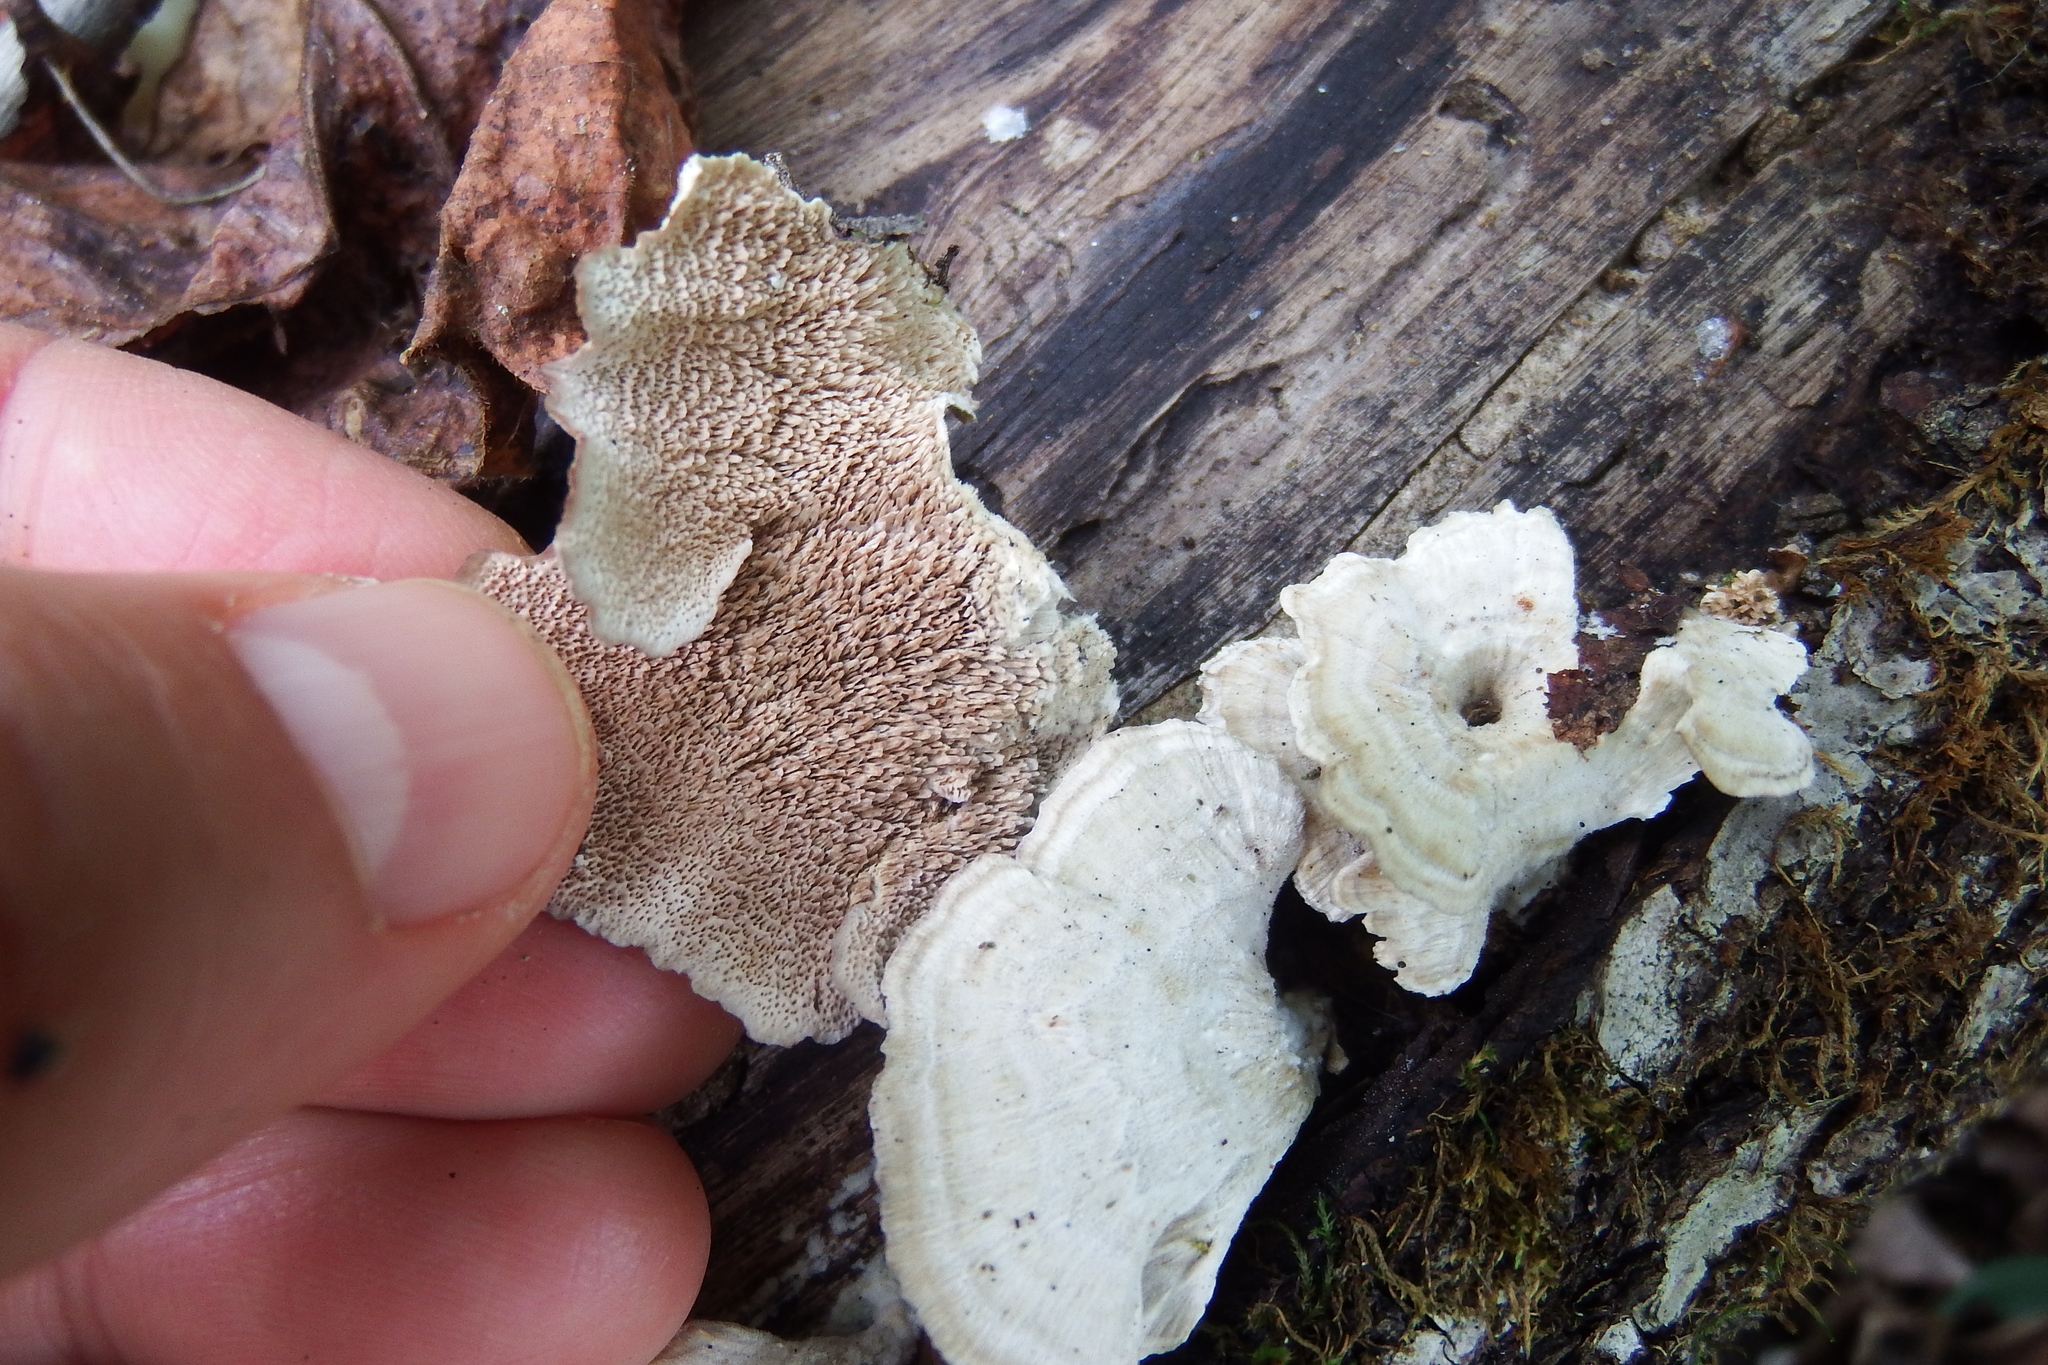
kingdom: Fungi
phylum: Basidiomycota
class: Agaricomycetes
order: Hymenochaetales
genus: Trichaptum
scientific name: Trichaptum biforme
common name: Violet-toothed polypore
